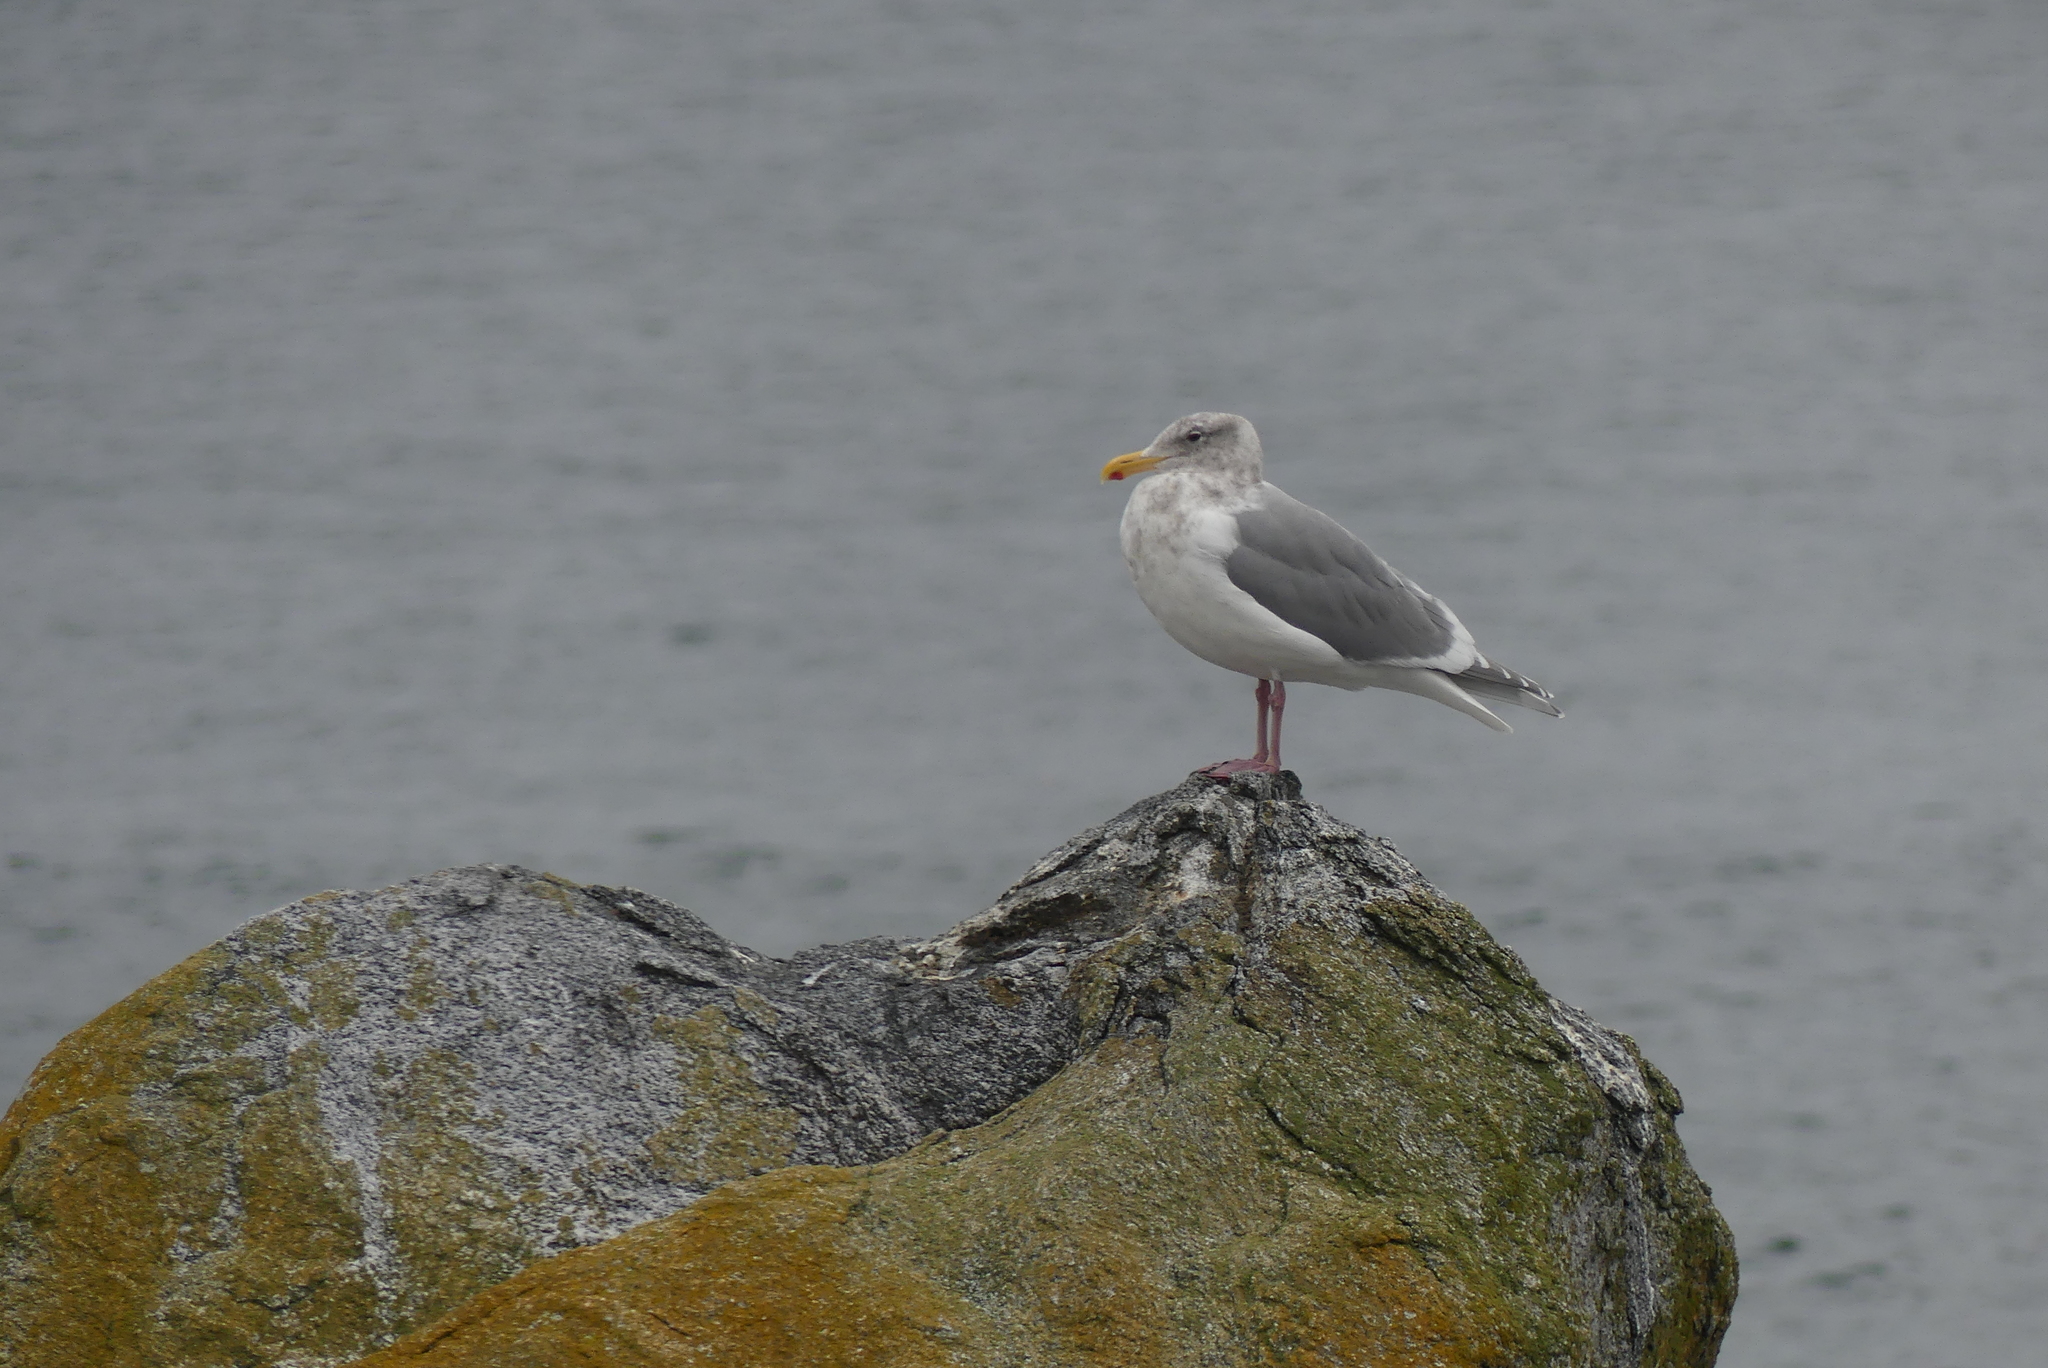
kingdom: Animalia
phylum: Chordata
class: Aves
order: Charadriiformes
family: Laridae
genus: Larus
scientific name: Larus
